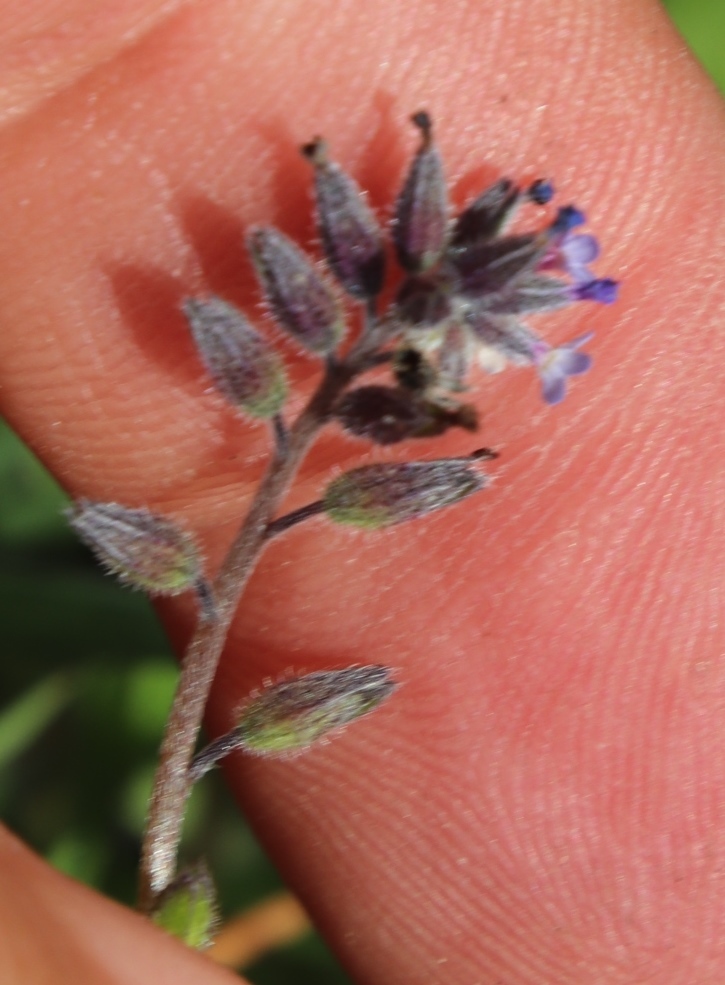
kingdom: Plantae
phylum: Tracheophyta
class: Magnoliopsida
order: Boraginales
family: Boraginaceae
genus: Myosotis
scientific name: Myosotis discolor
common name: Changing forget-me-not
